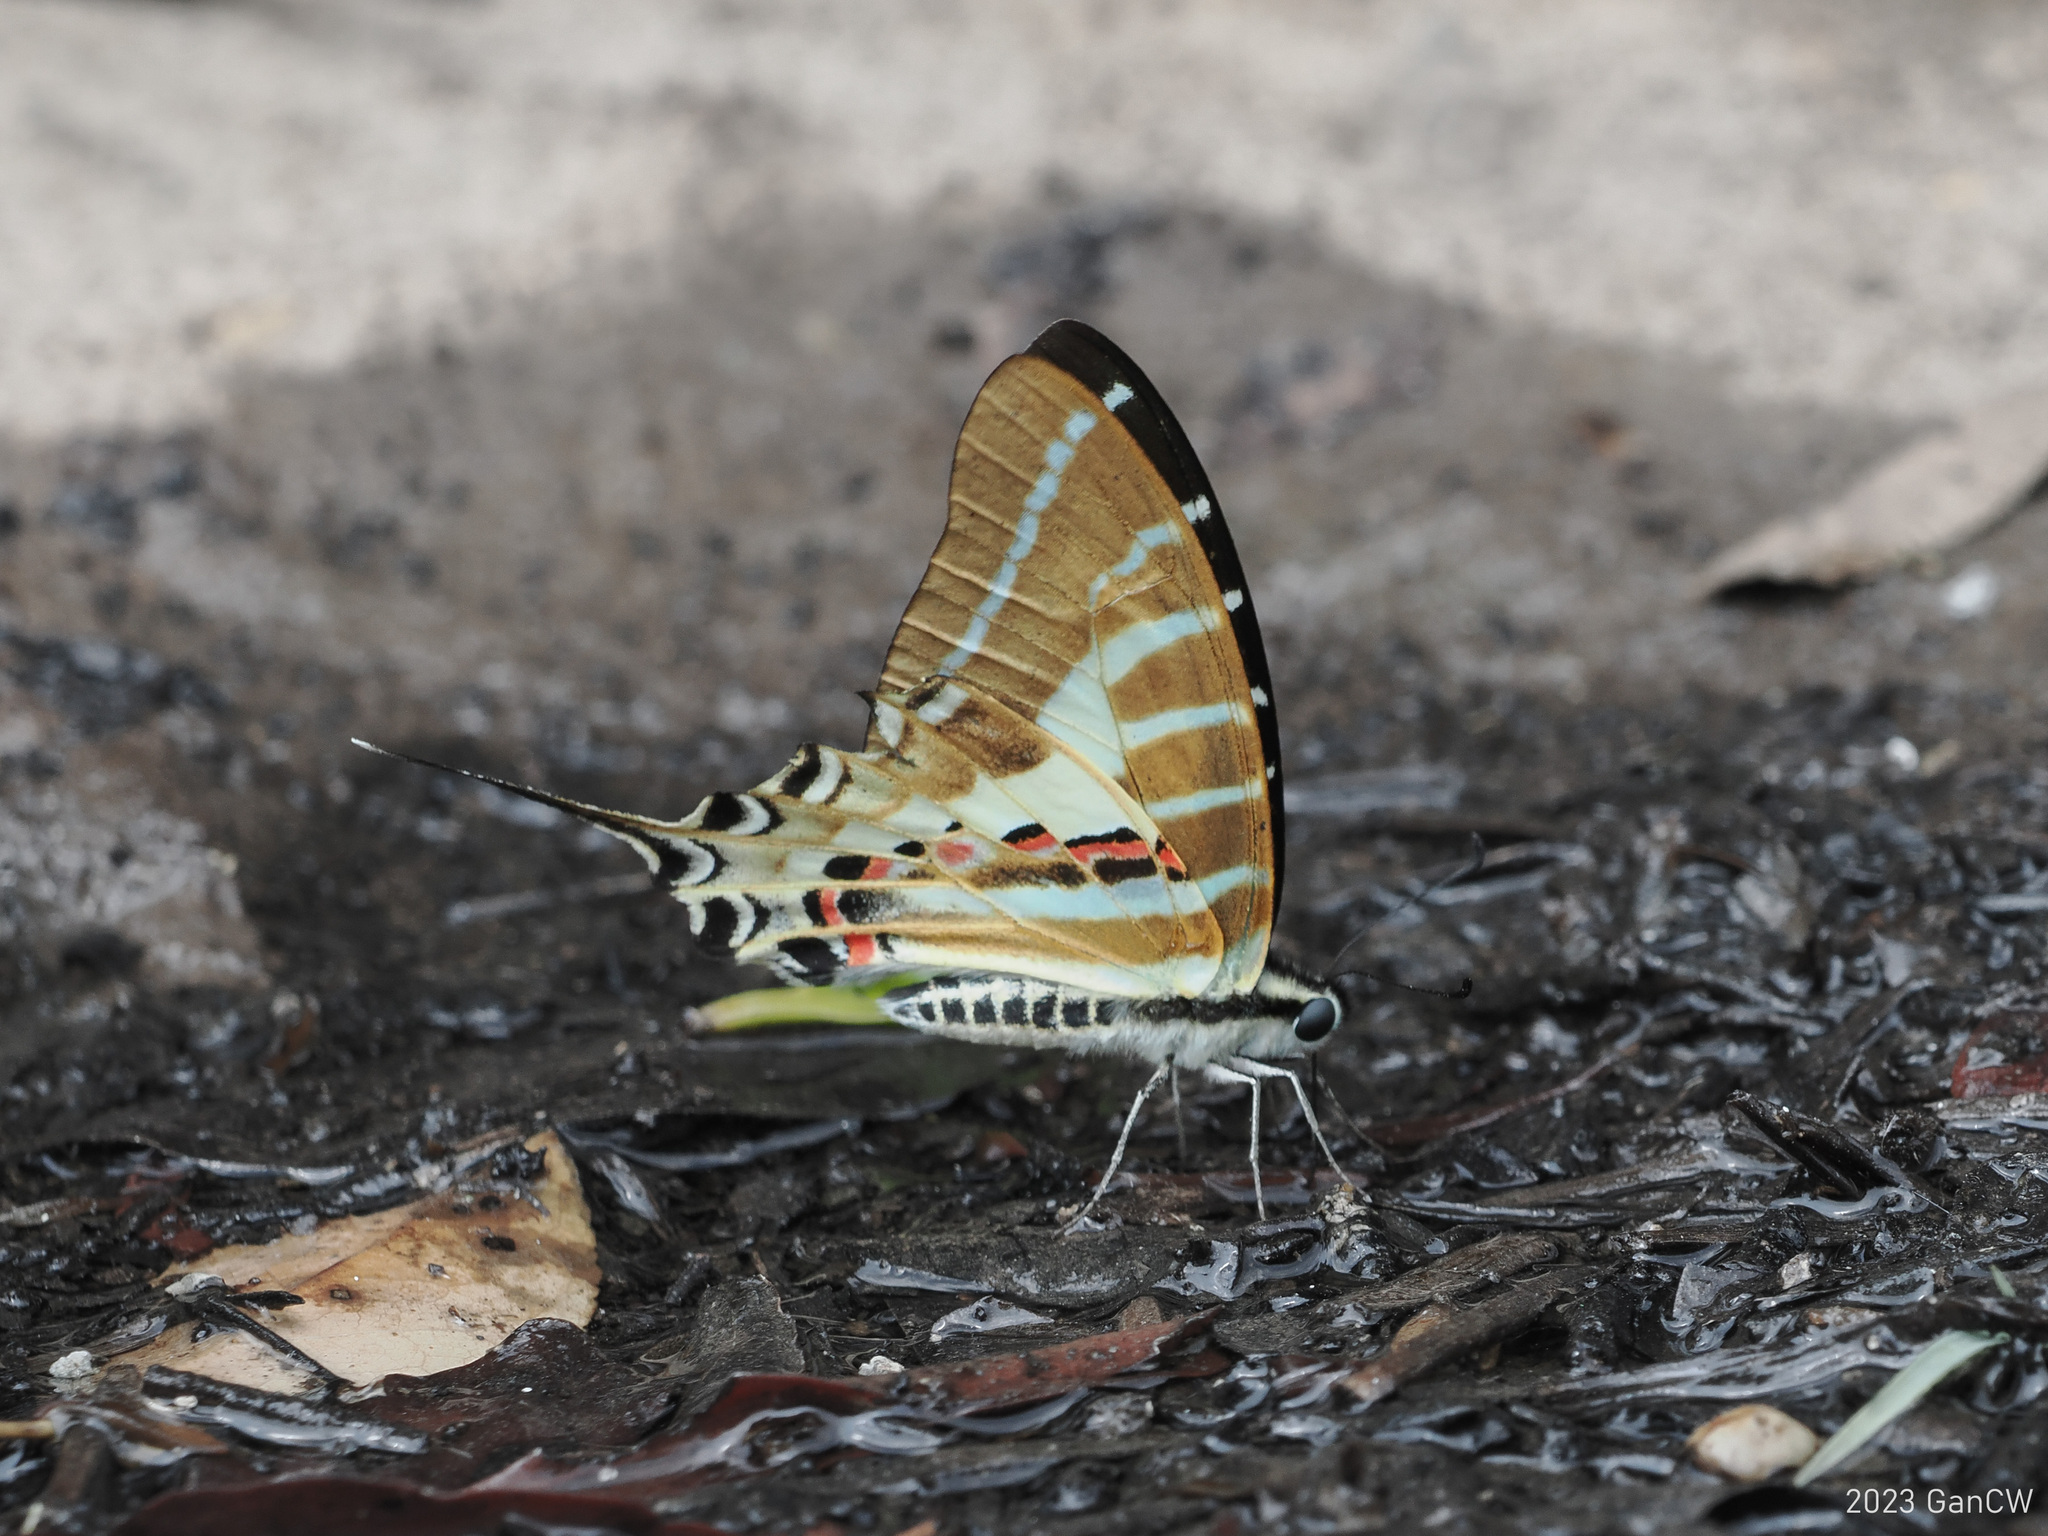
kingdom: Animalia
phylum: Arthropoda
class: Insecta
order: Lepidoptera
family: Papilionidae
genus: Graphium
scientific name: Graphium aristeus
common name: Chain swordtail
